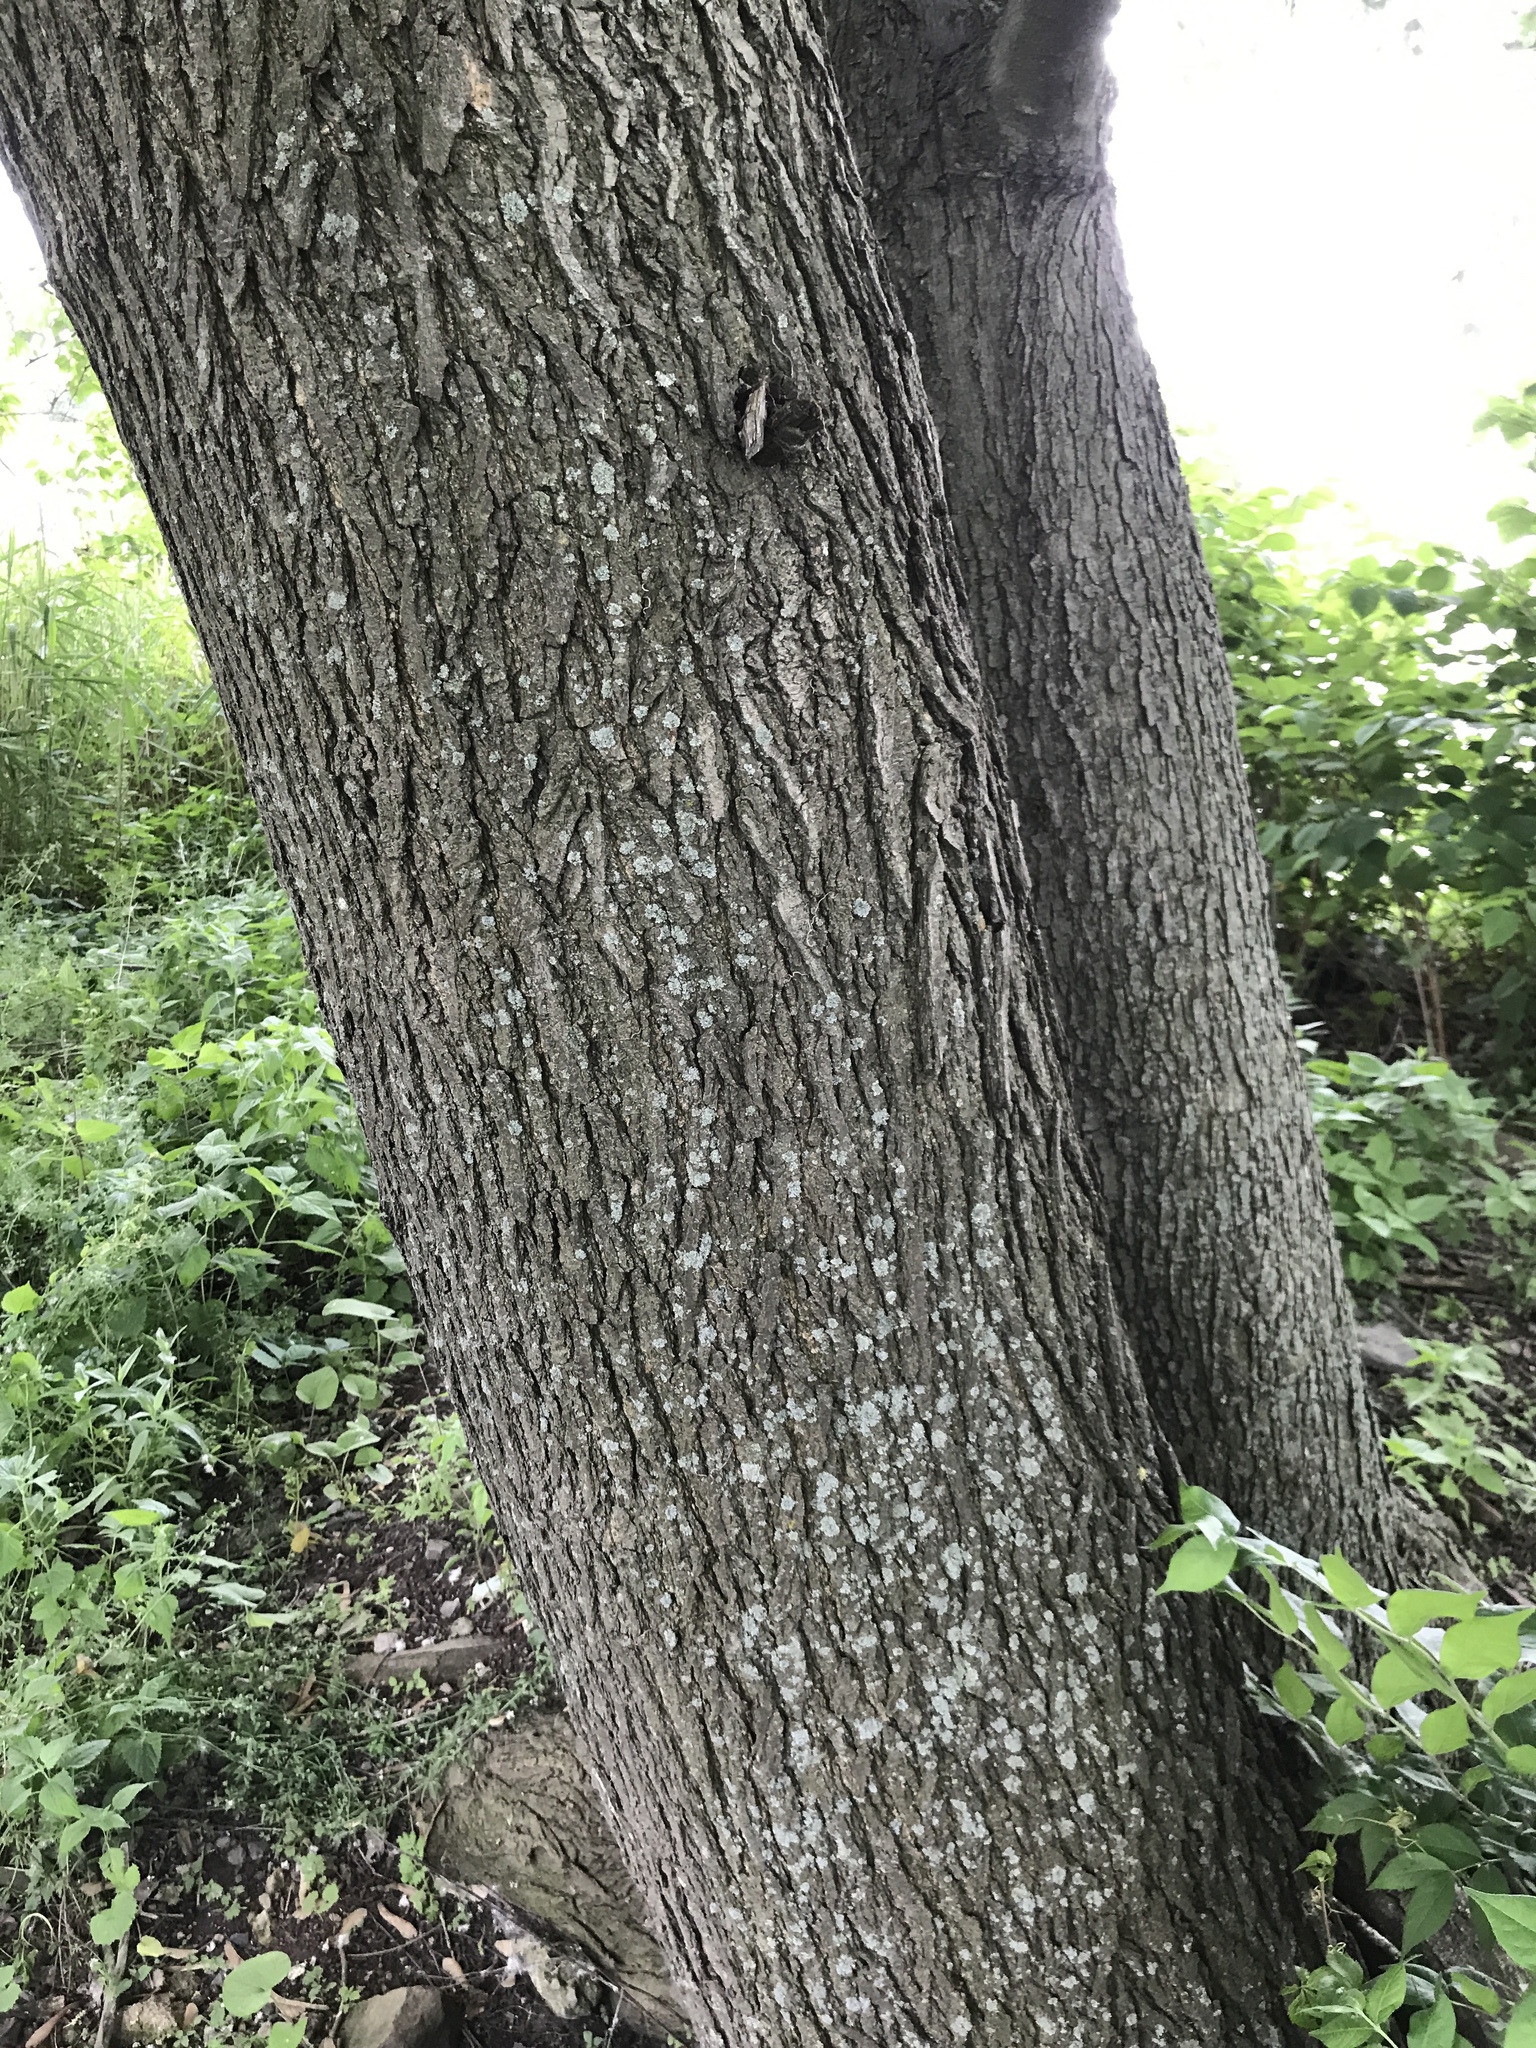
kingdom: Plantae
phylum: Tracheophyta
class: Magnoliopsida
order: Sapindales
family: Sapindaceae
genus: Acer
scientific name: Acer saccharinum
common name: Silver maple
